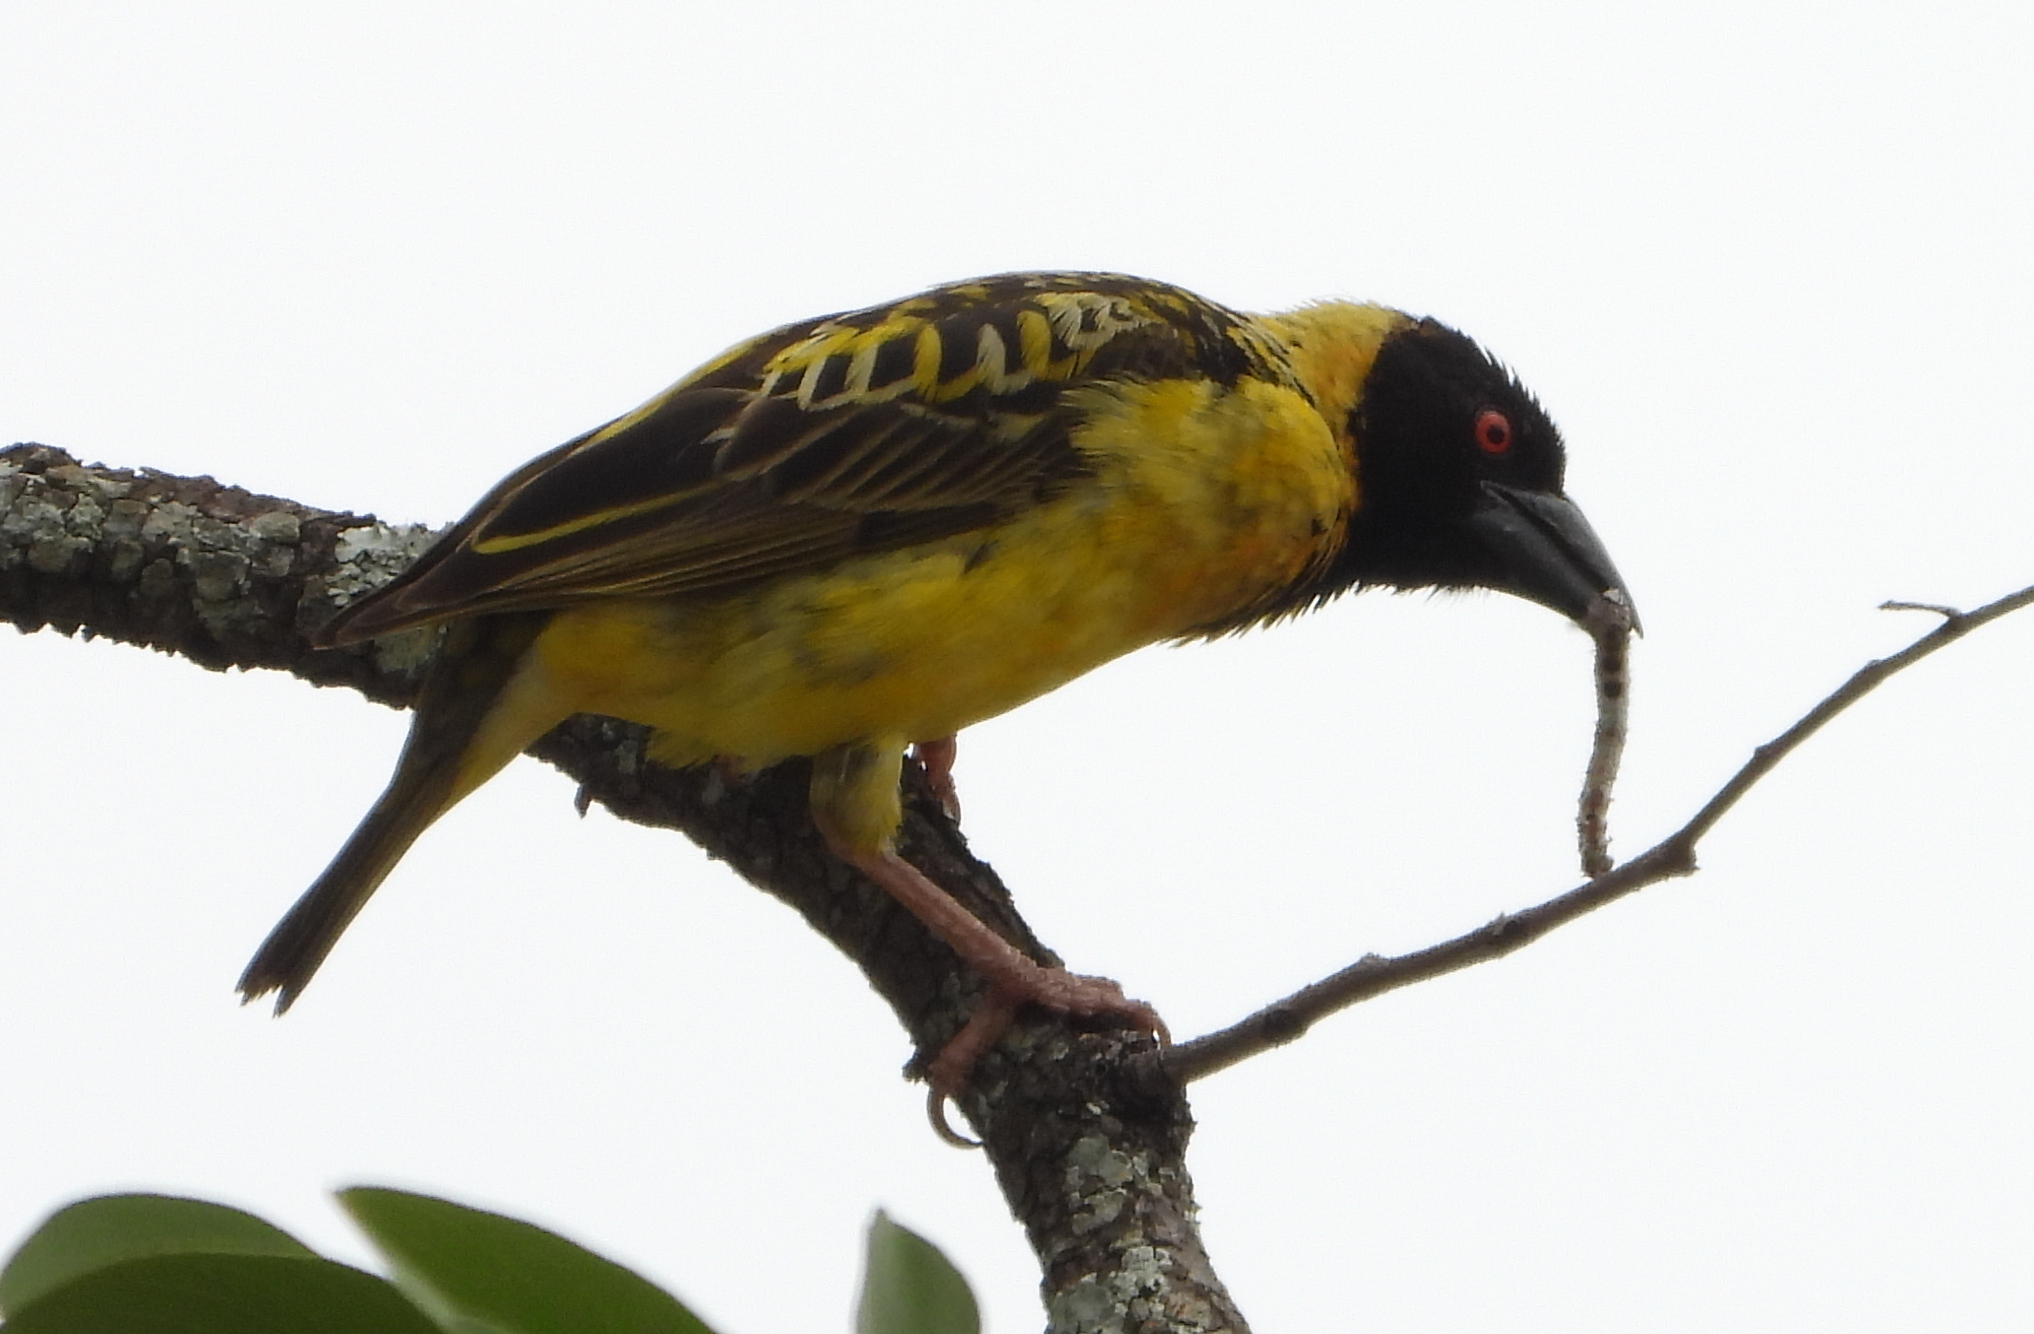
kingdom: Animalia
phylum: Chordata
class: Aves
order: Passeriformes
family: Ploceidae
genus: Ploceus
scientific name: Ploceus cucullatus
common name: Village weaver
